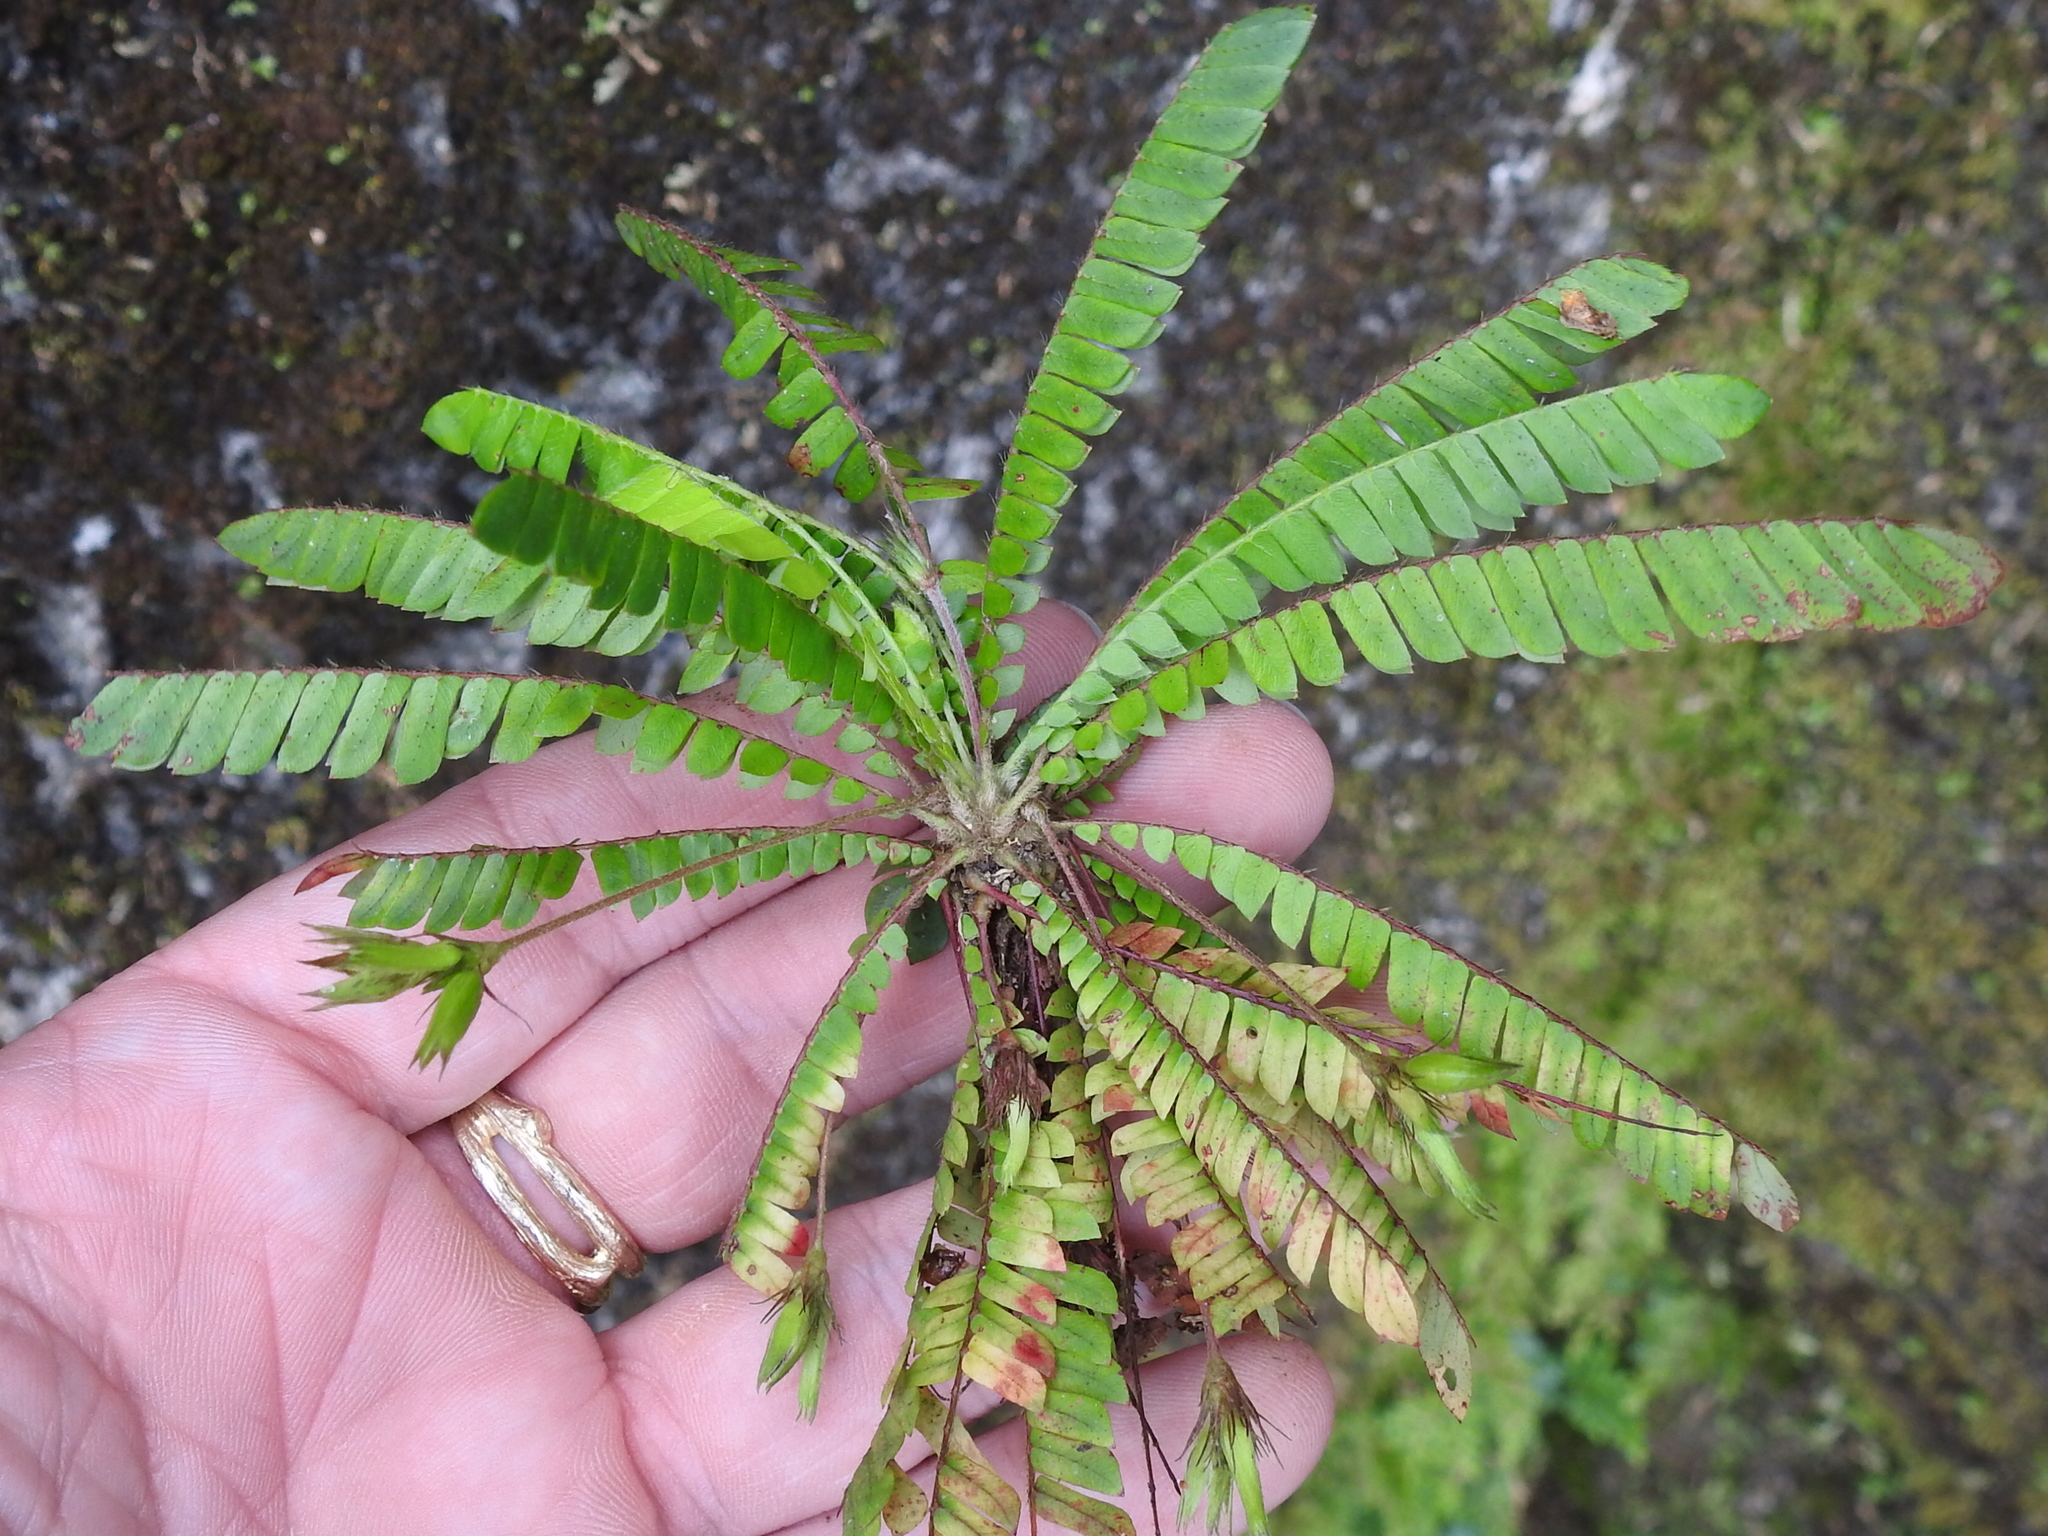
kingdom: Plantae
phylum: Tracheophyta
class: Magnoliopsida
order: Oxalidales
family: Oxalidaceae
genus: Biophytum
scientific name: Biophytum dendroides
